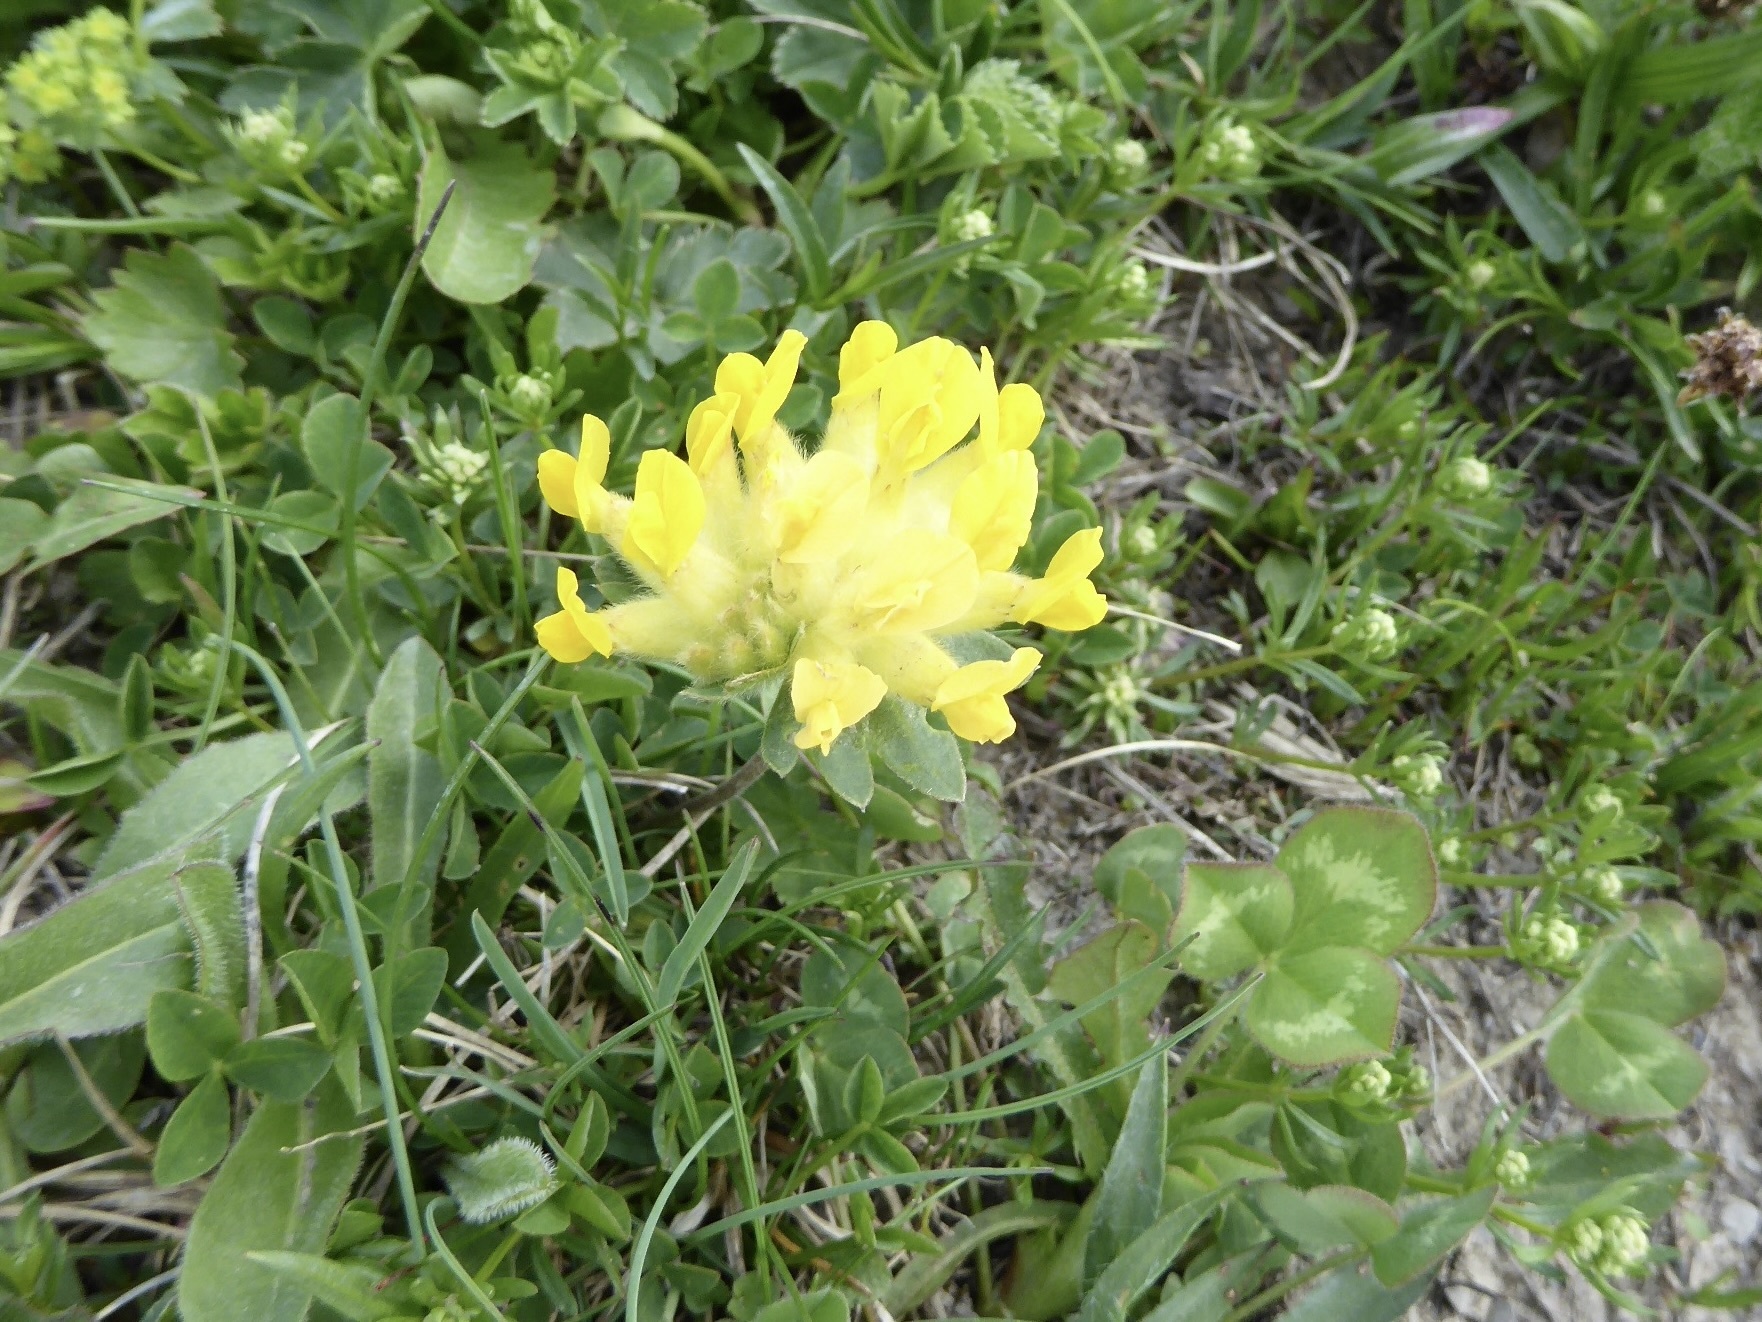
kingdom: Plantae
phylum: Tracheophyta
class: Magnoliopsida
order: Fabales
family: Fabaceae
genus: Anthyllis
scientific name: Anthyllis vulneraria
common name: Kidney vetch
